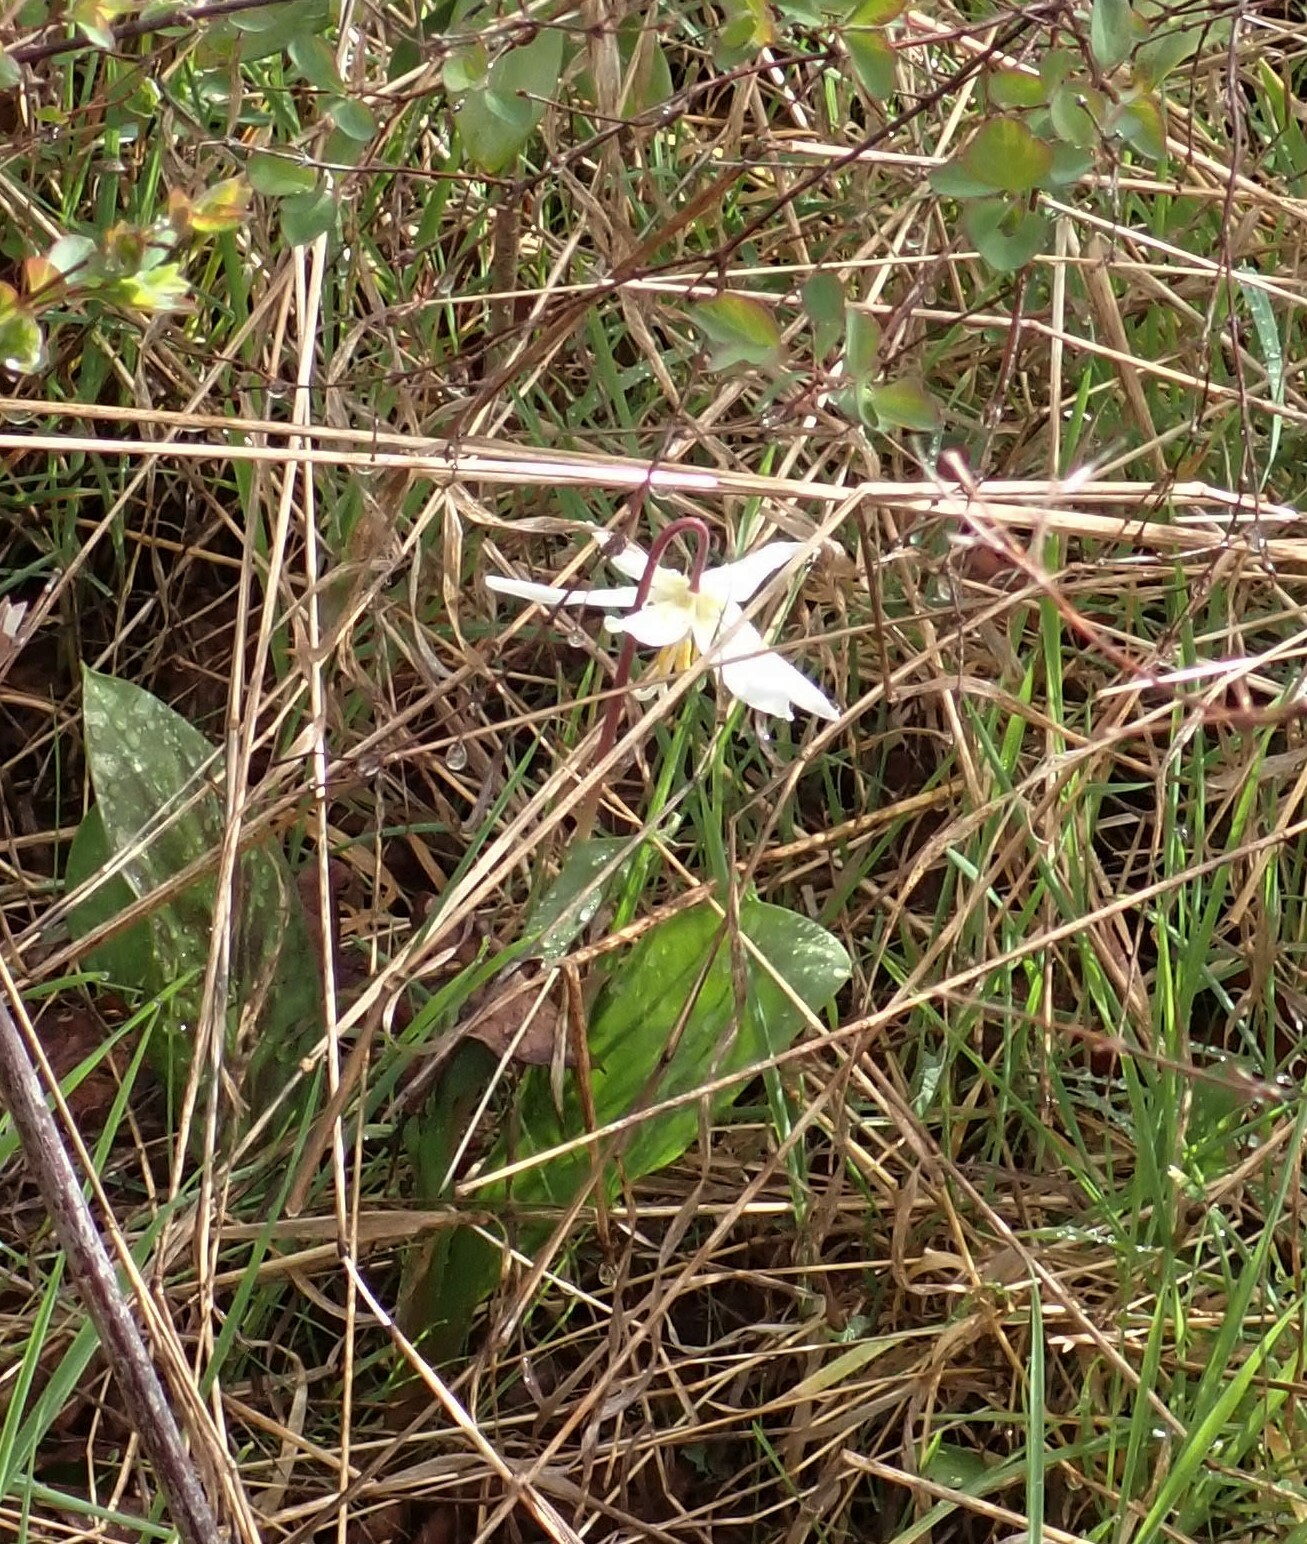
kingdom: Plantae
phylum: Tracheophyta
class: Liliopsida
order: Liliales
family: Liliaceae
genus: Erythronium
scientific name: Erythronium oregonum
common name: Giant adder's-tongue
